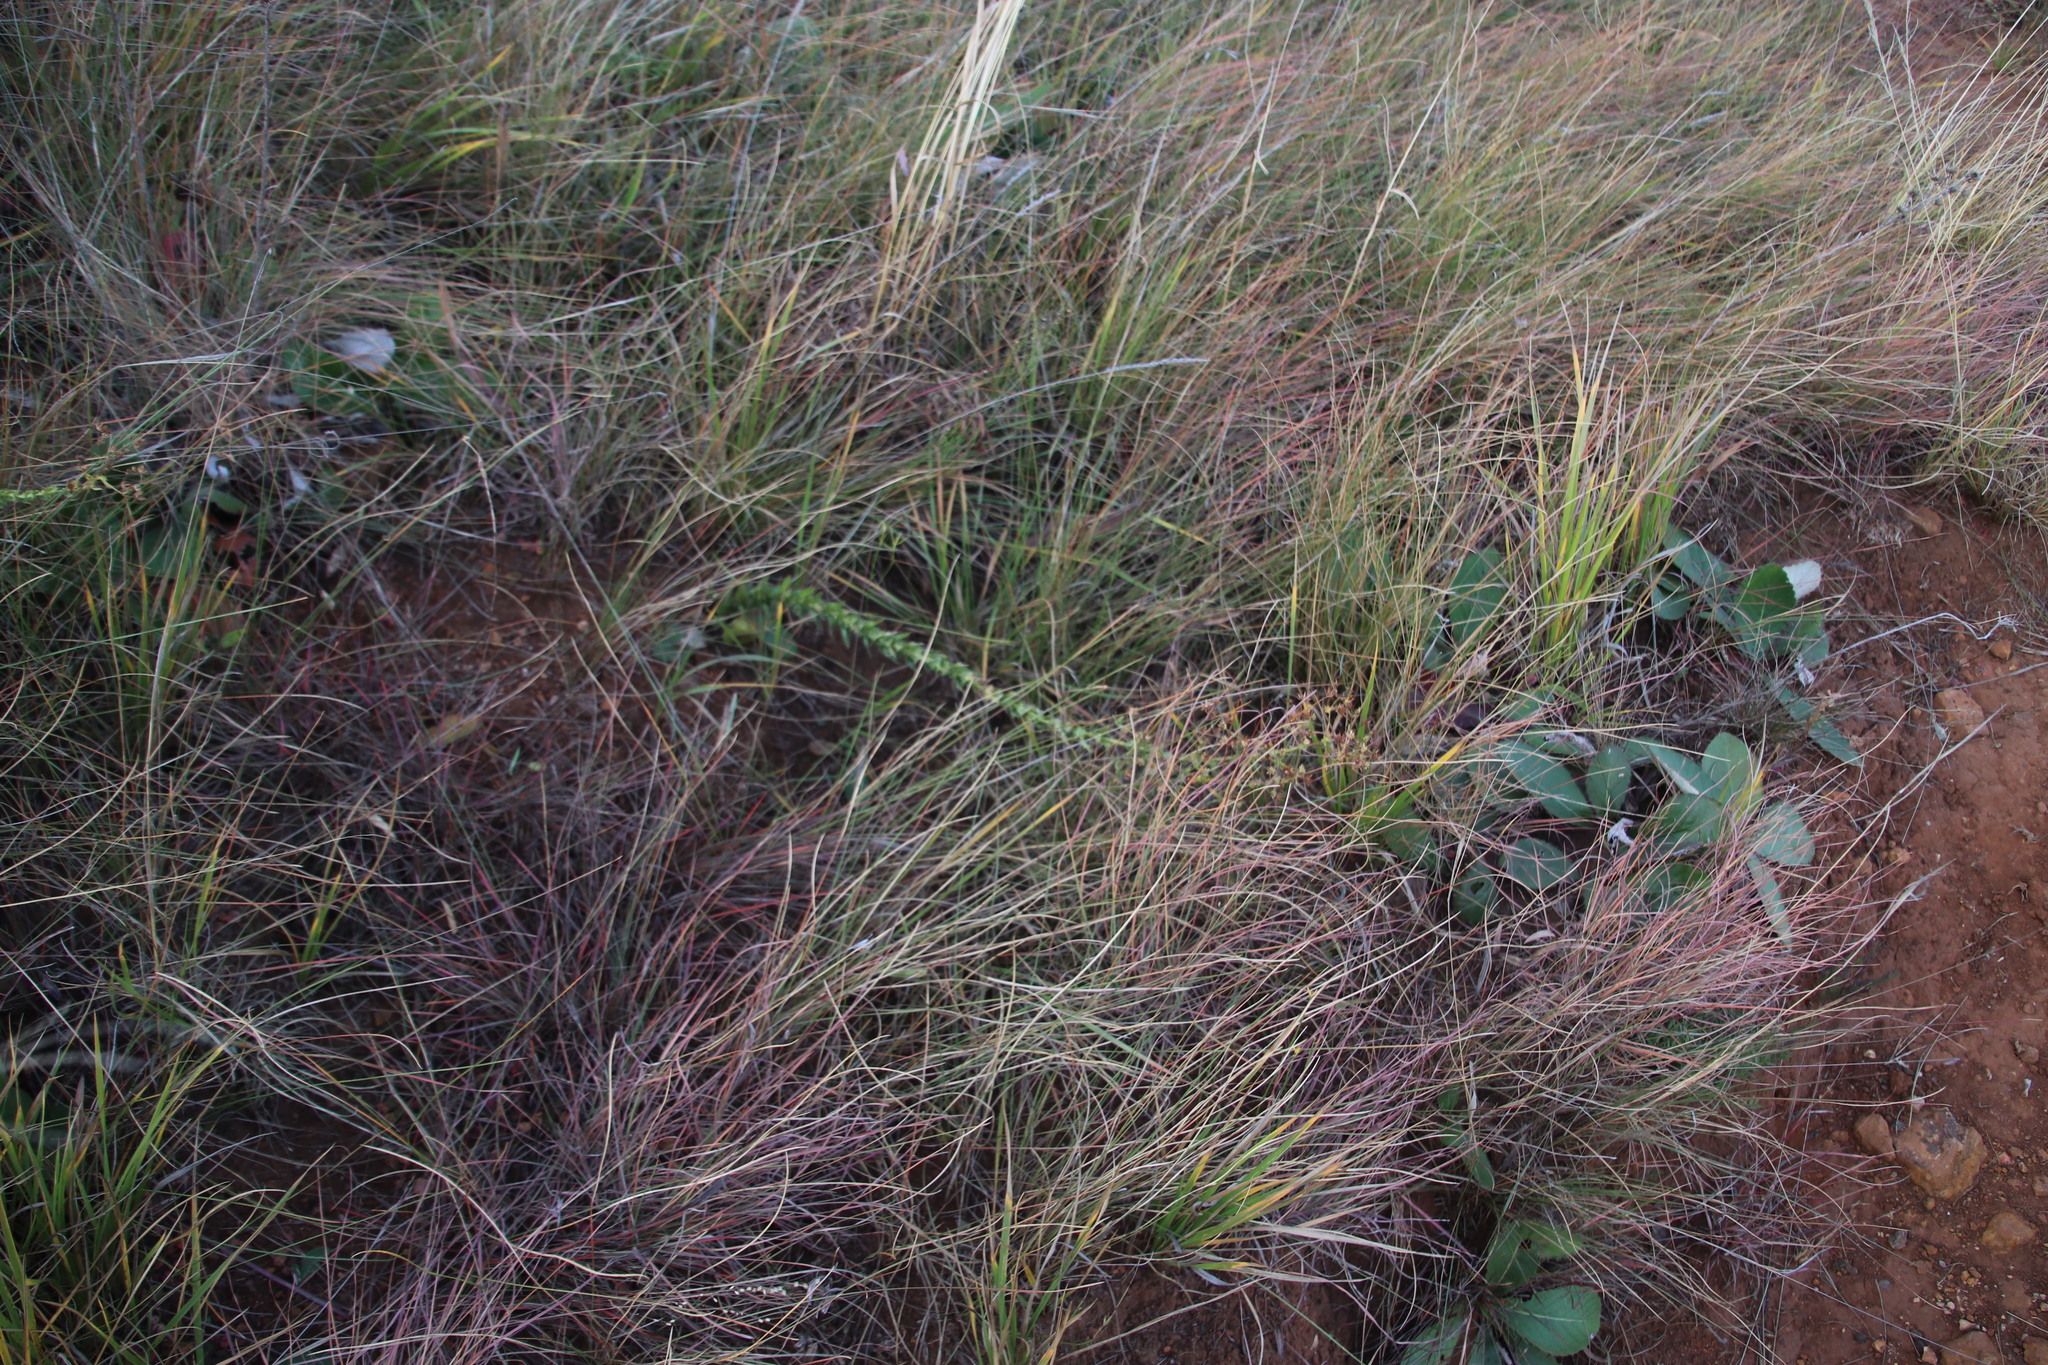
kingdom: Plantae
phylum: Tracheophyta
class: Magnoliopsida
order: Apiales
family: Apiaceae
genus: Alepidea
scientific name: Alepidea setifera
